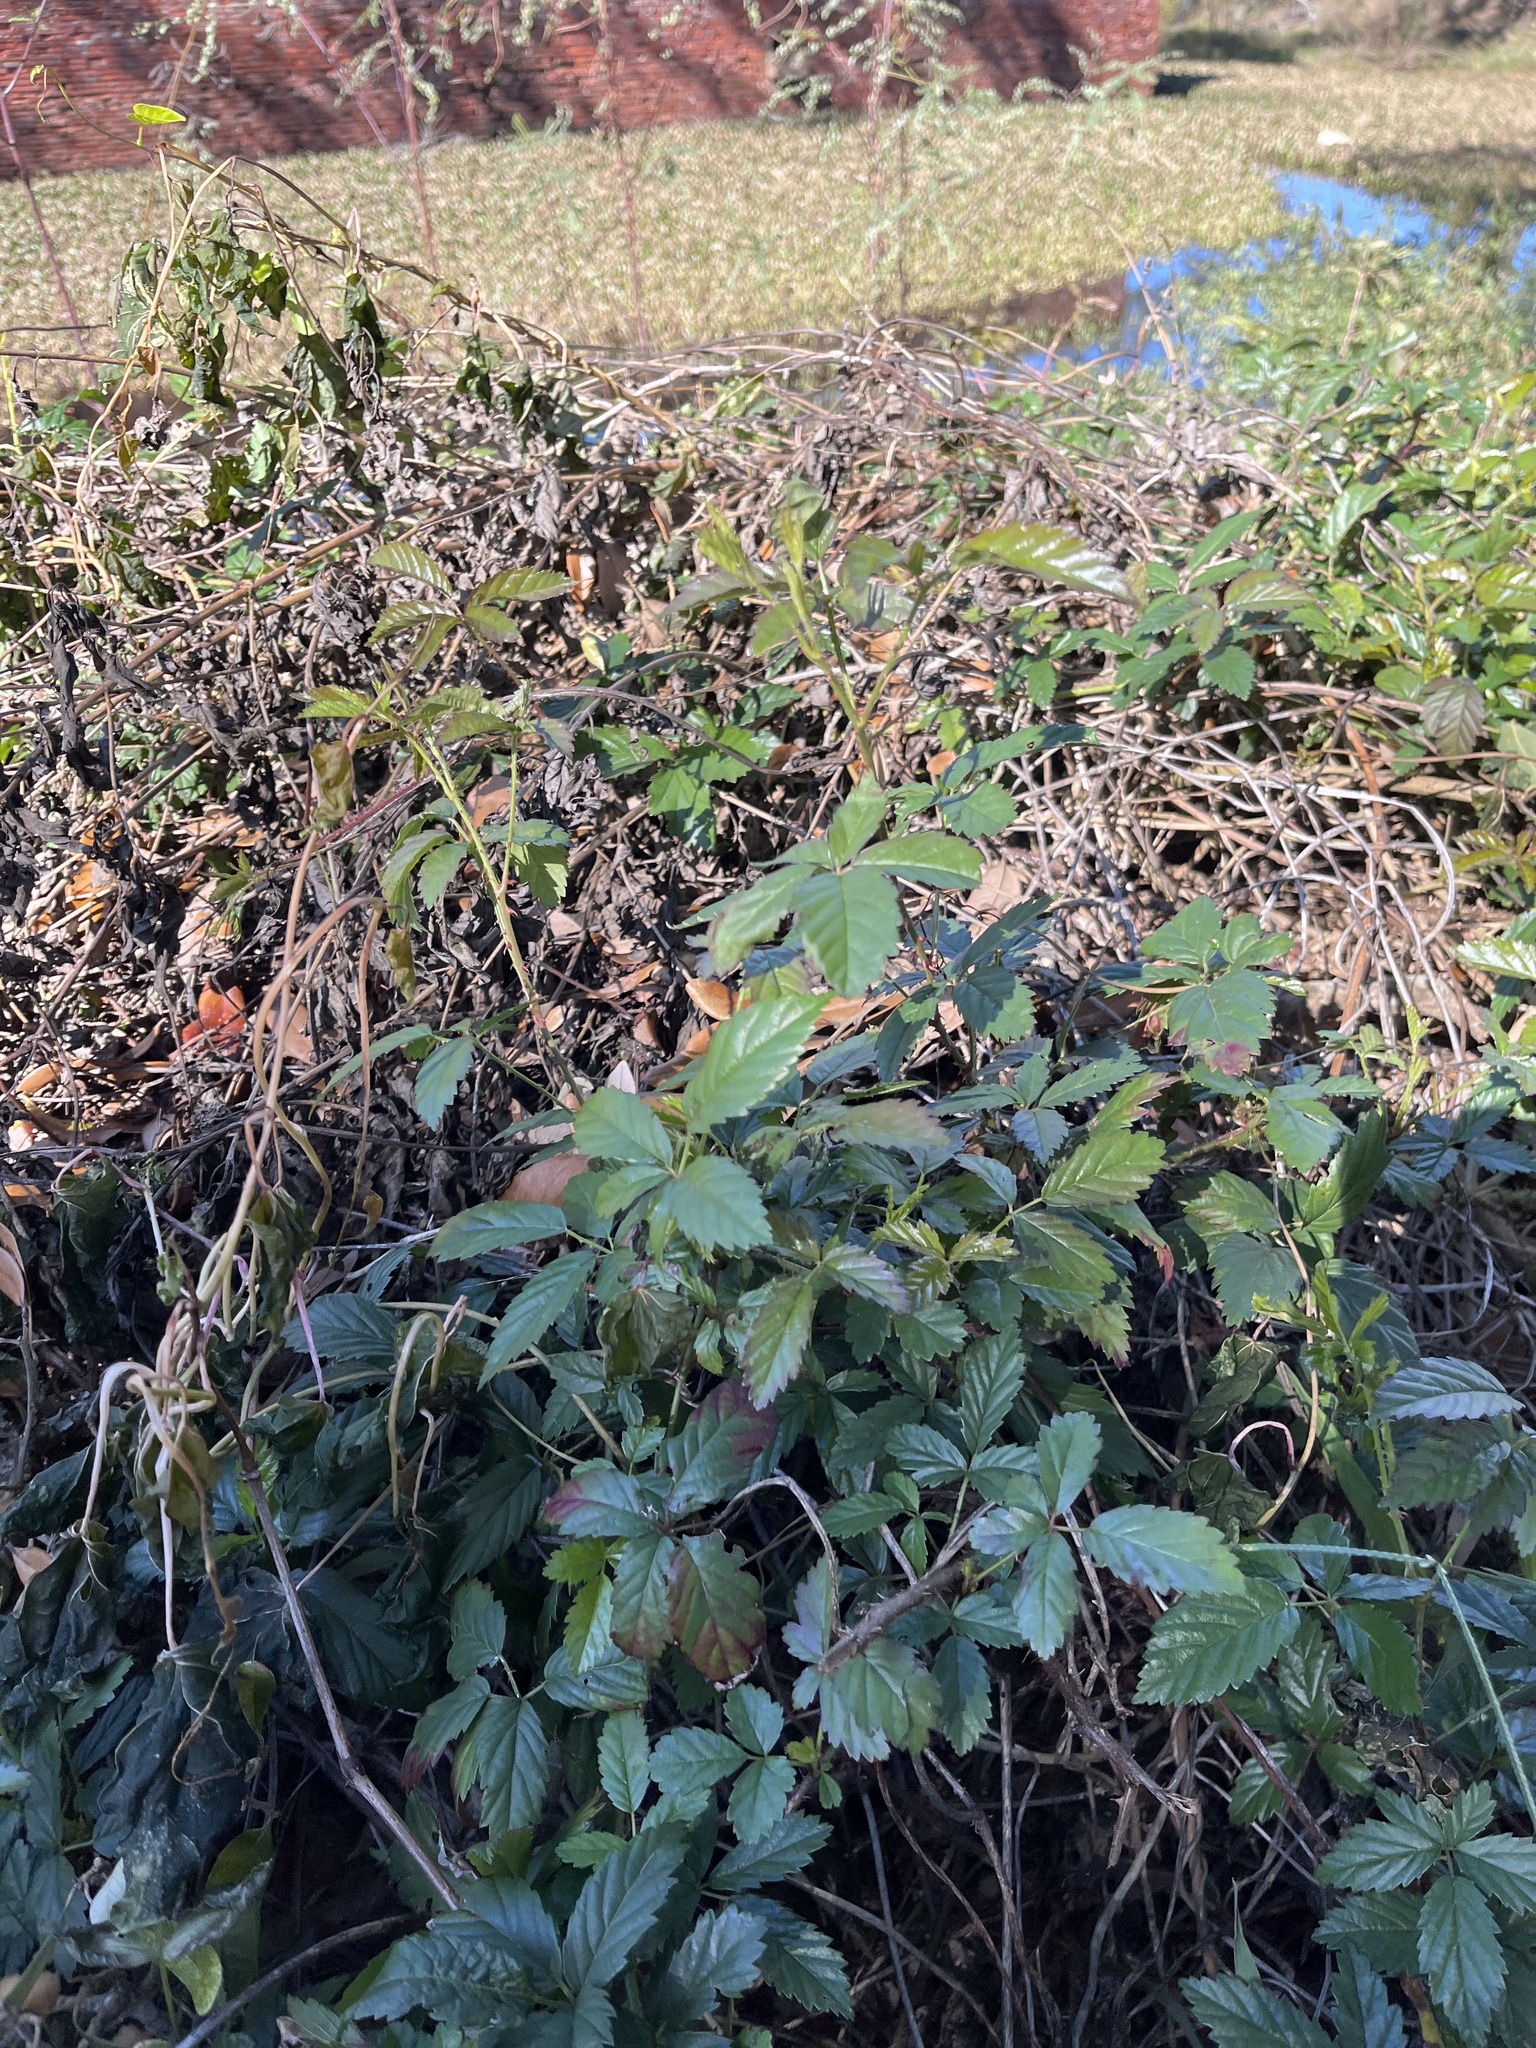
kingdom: Plantae
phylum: Tracheophyta
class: Magnoliopsida
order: Rosales
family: Rosaceae
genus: Rubus
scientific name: Rubus trivialis
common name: Southern dewberry
